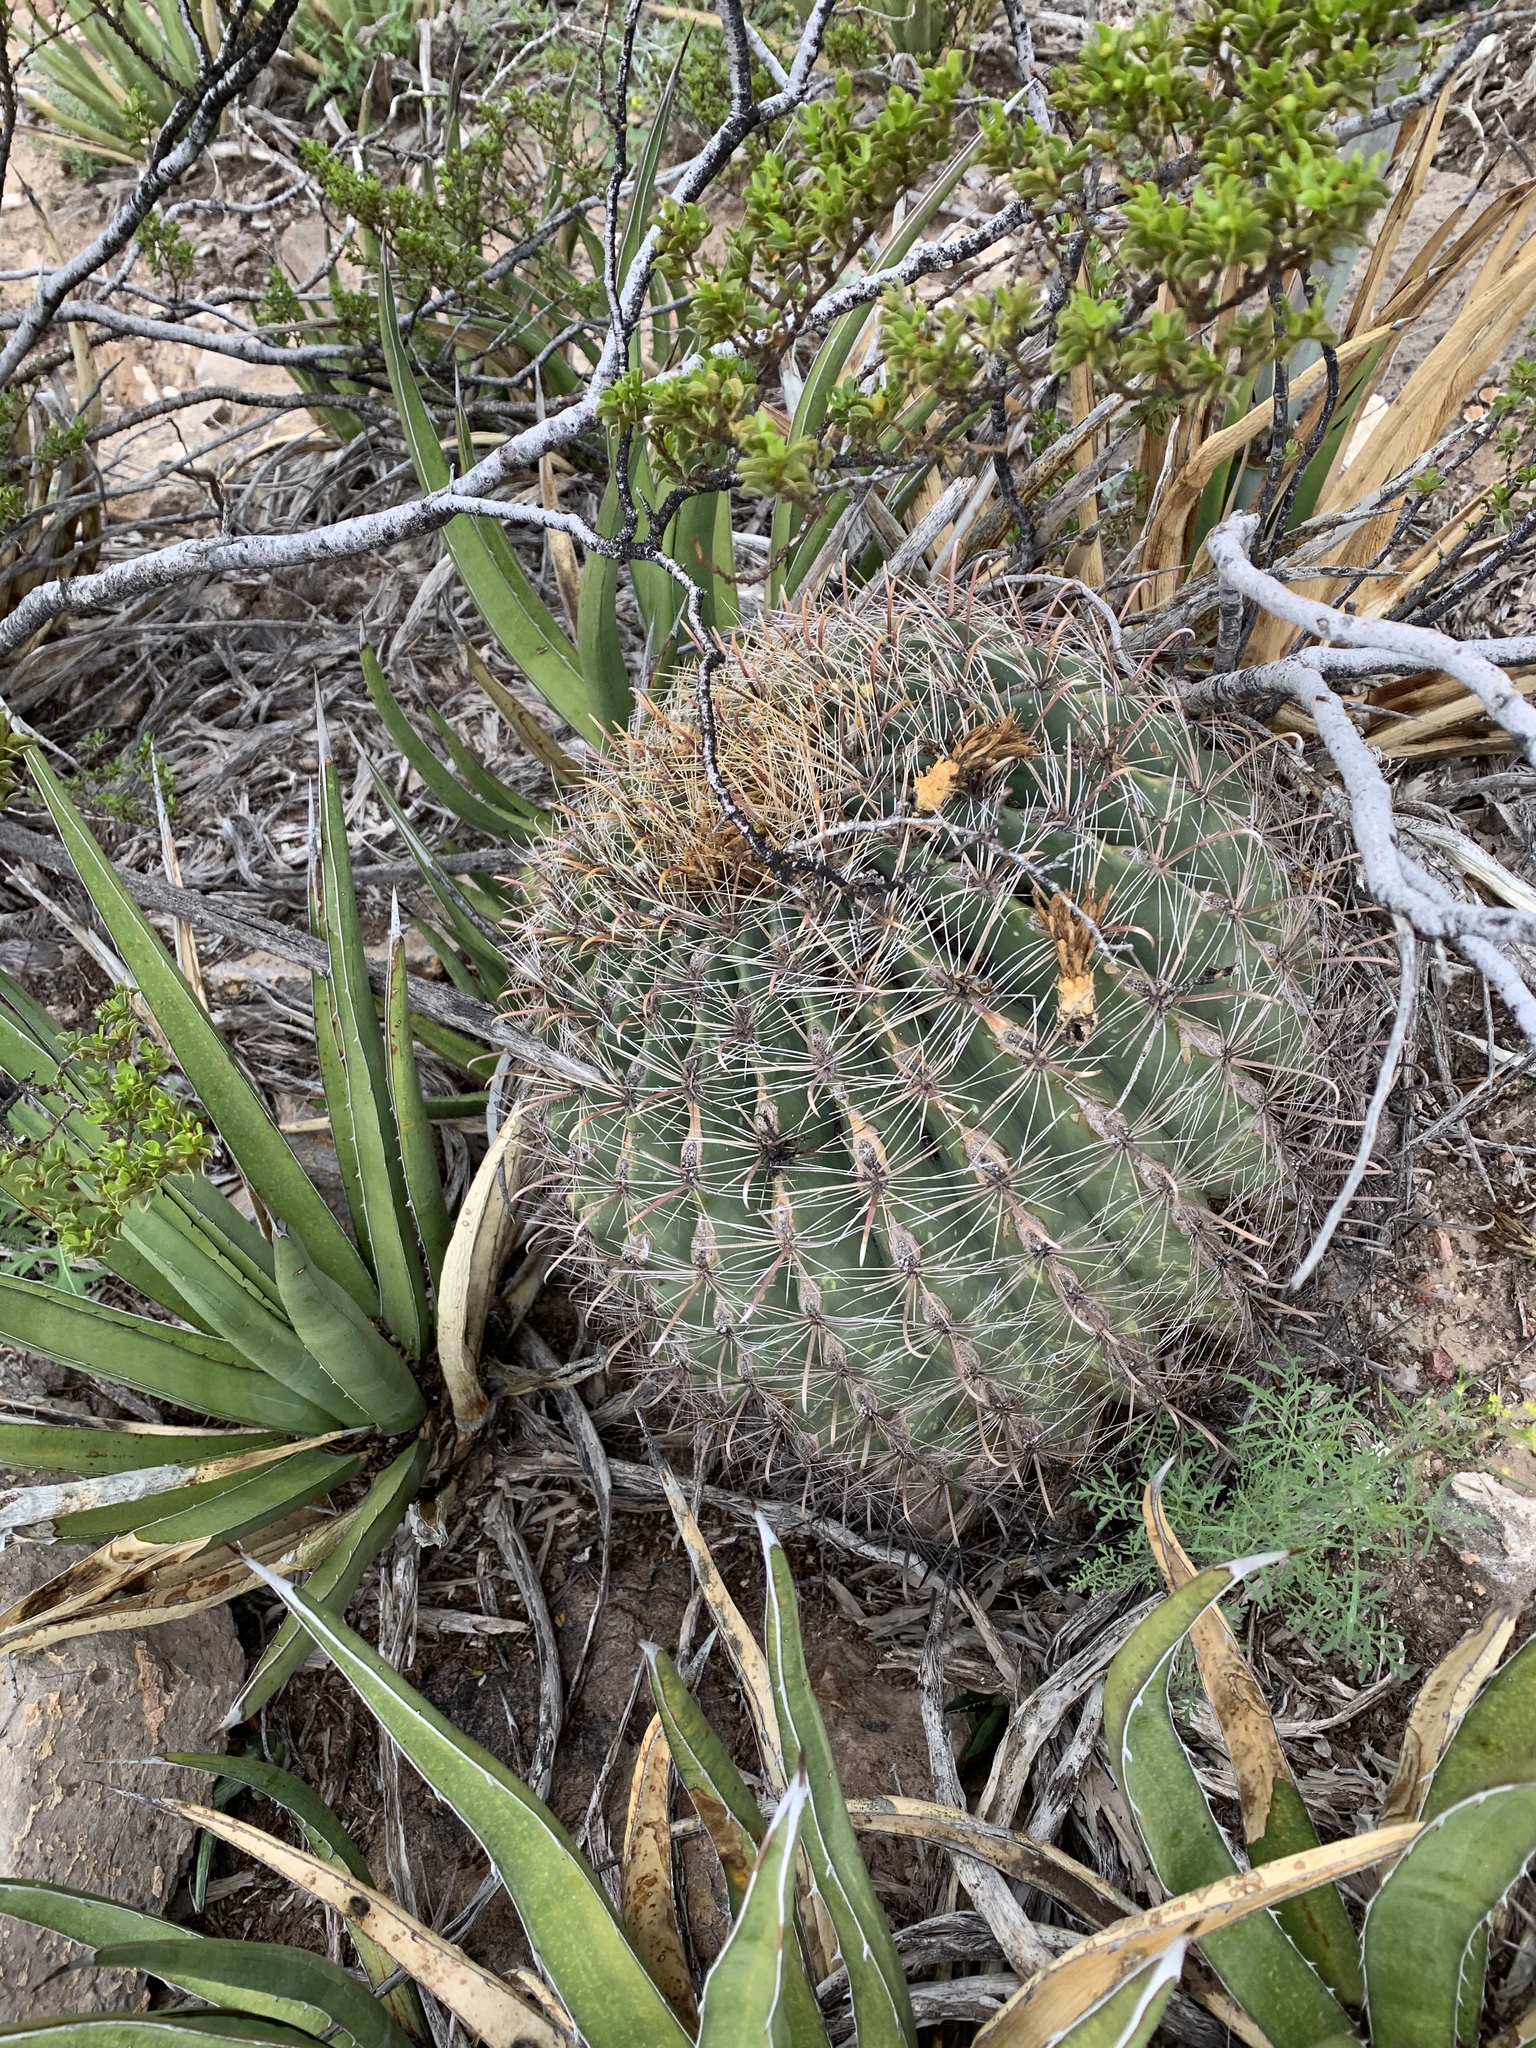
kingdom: Plantae
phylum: Tracheophyta
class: Magnoliopsida
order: Caryophyllales
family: Cactaceae
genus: Ferocactus
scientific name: Ferocactus wislizeni
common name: Candy barrel cactus
